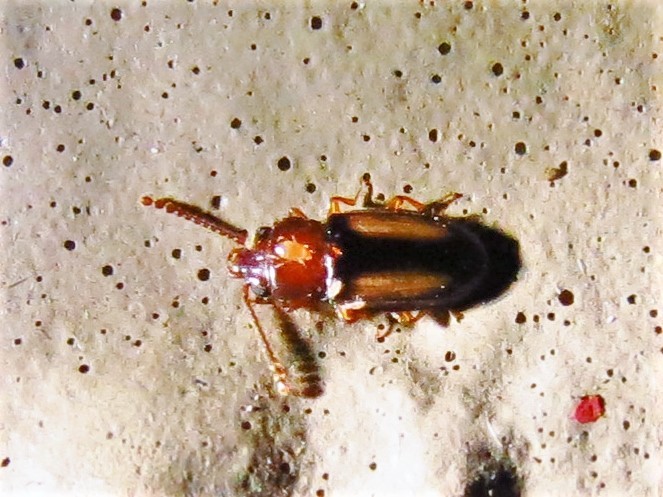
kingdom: Animalia
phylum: Arthropoda
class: Insecta
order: Coleoptera
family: Laemophloeidae
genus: Laemophloeus
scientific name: Laemophloeus terminalis
